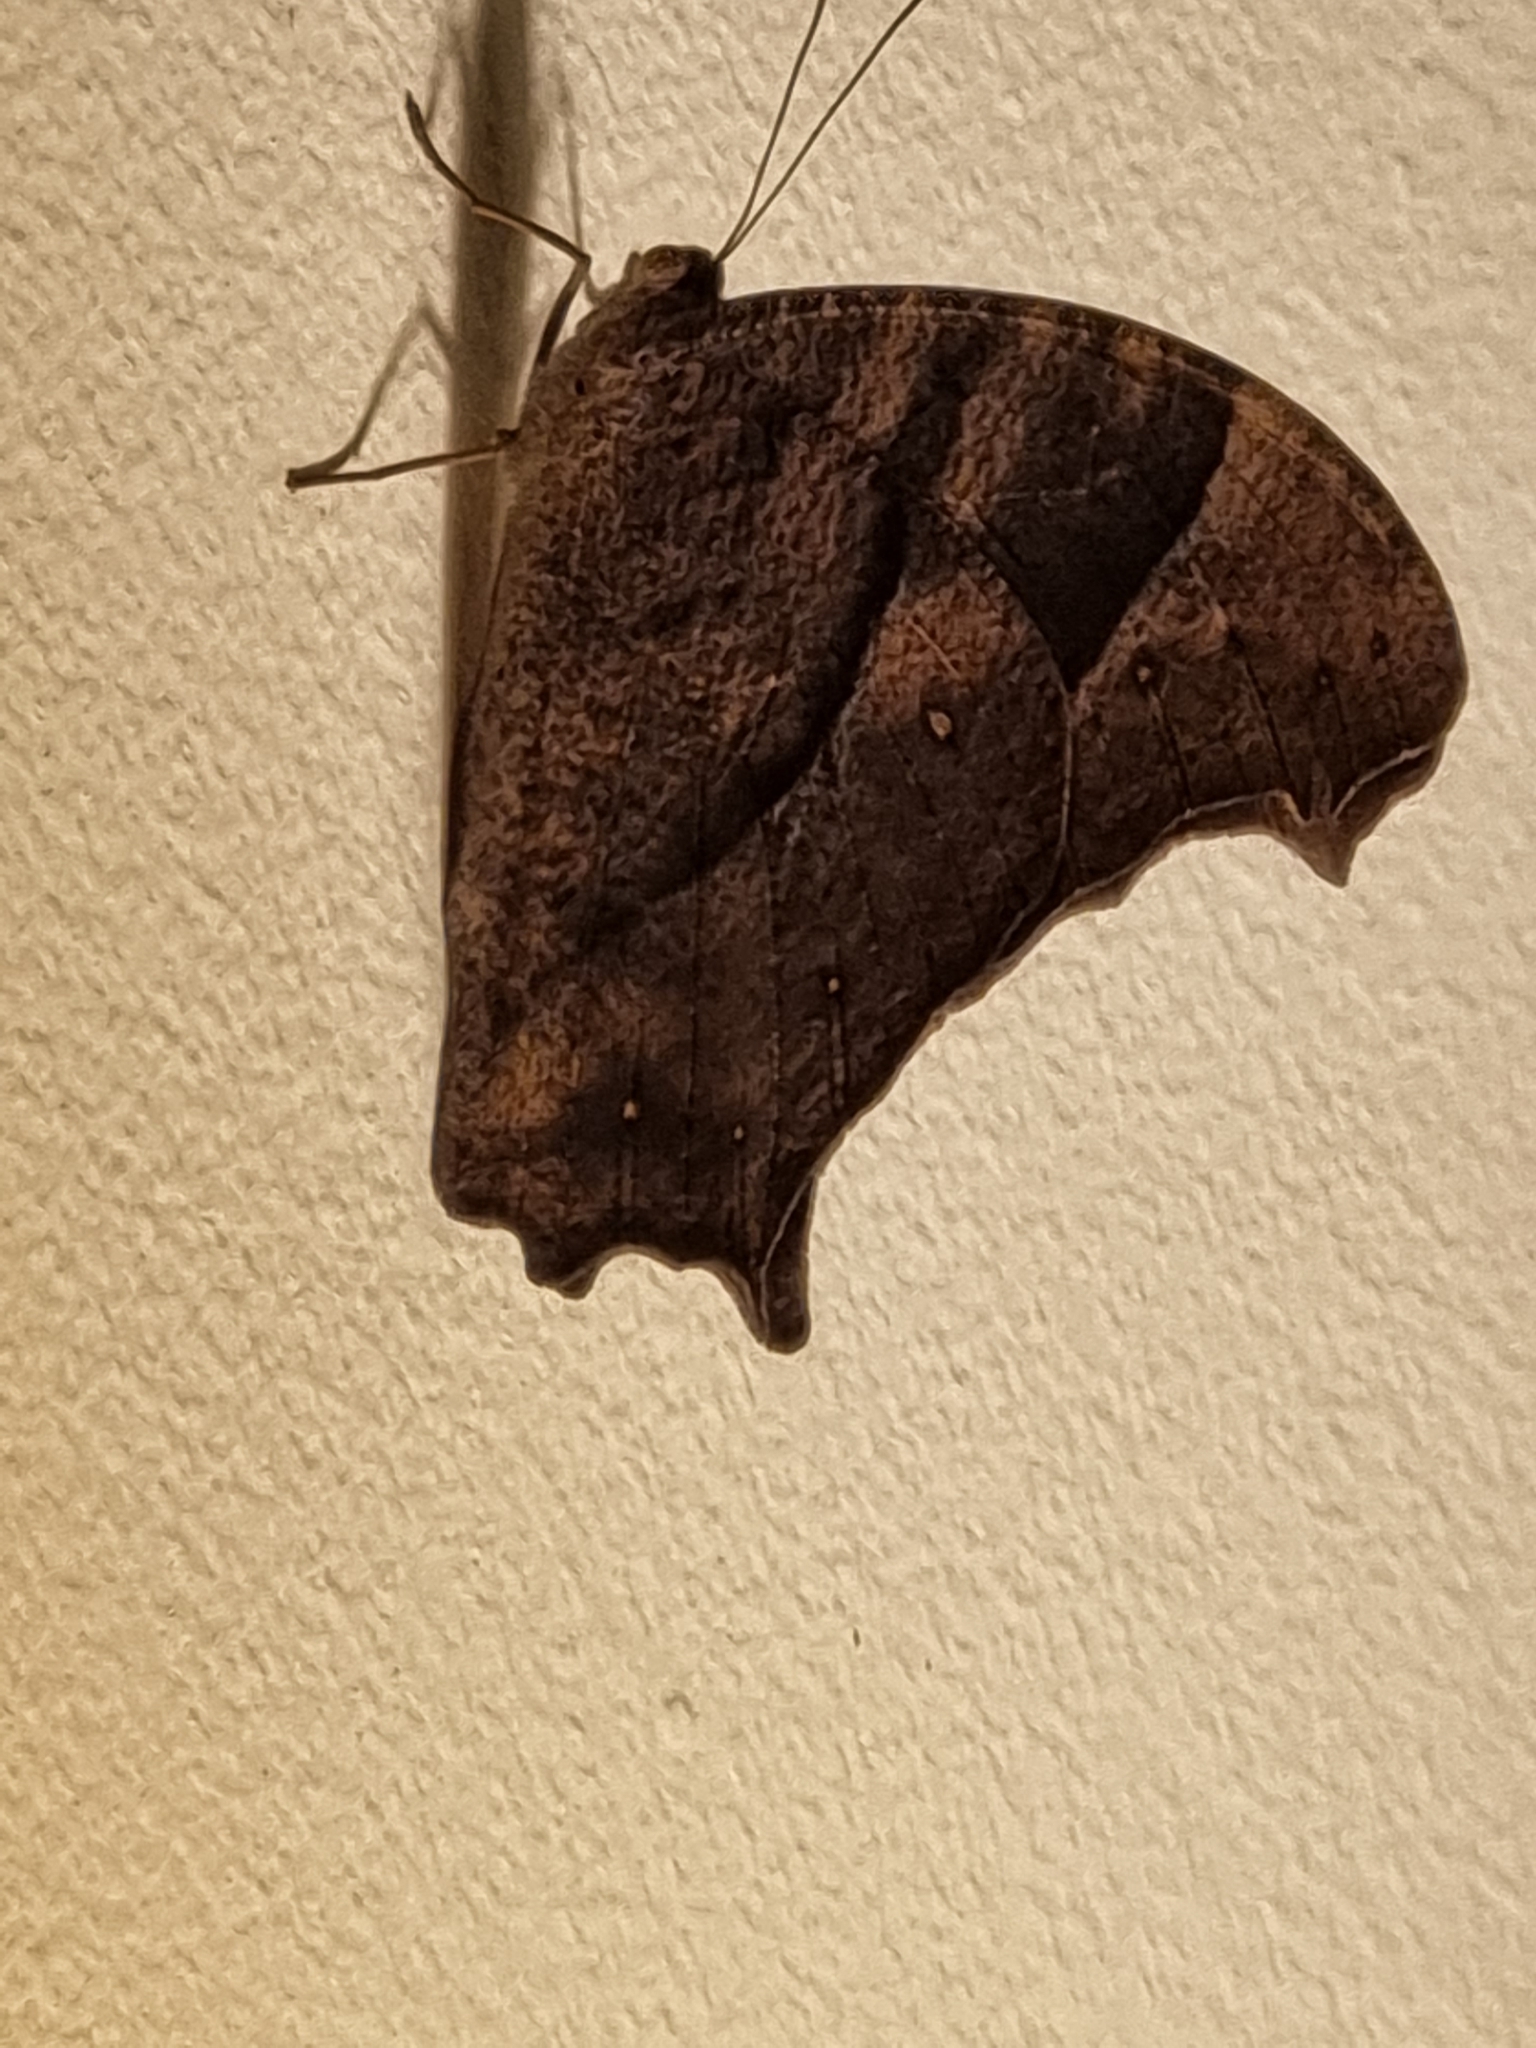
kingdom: Animalia
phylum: Arthropoda
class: Insecta
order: Lepidoptera
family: Nymphalidae
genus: Melanitis
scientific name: Melanitis leda
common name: Twilight brown
